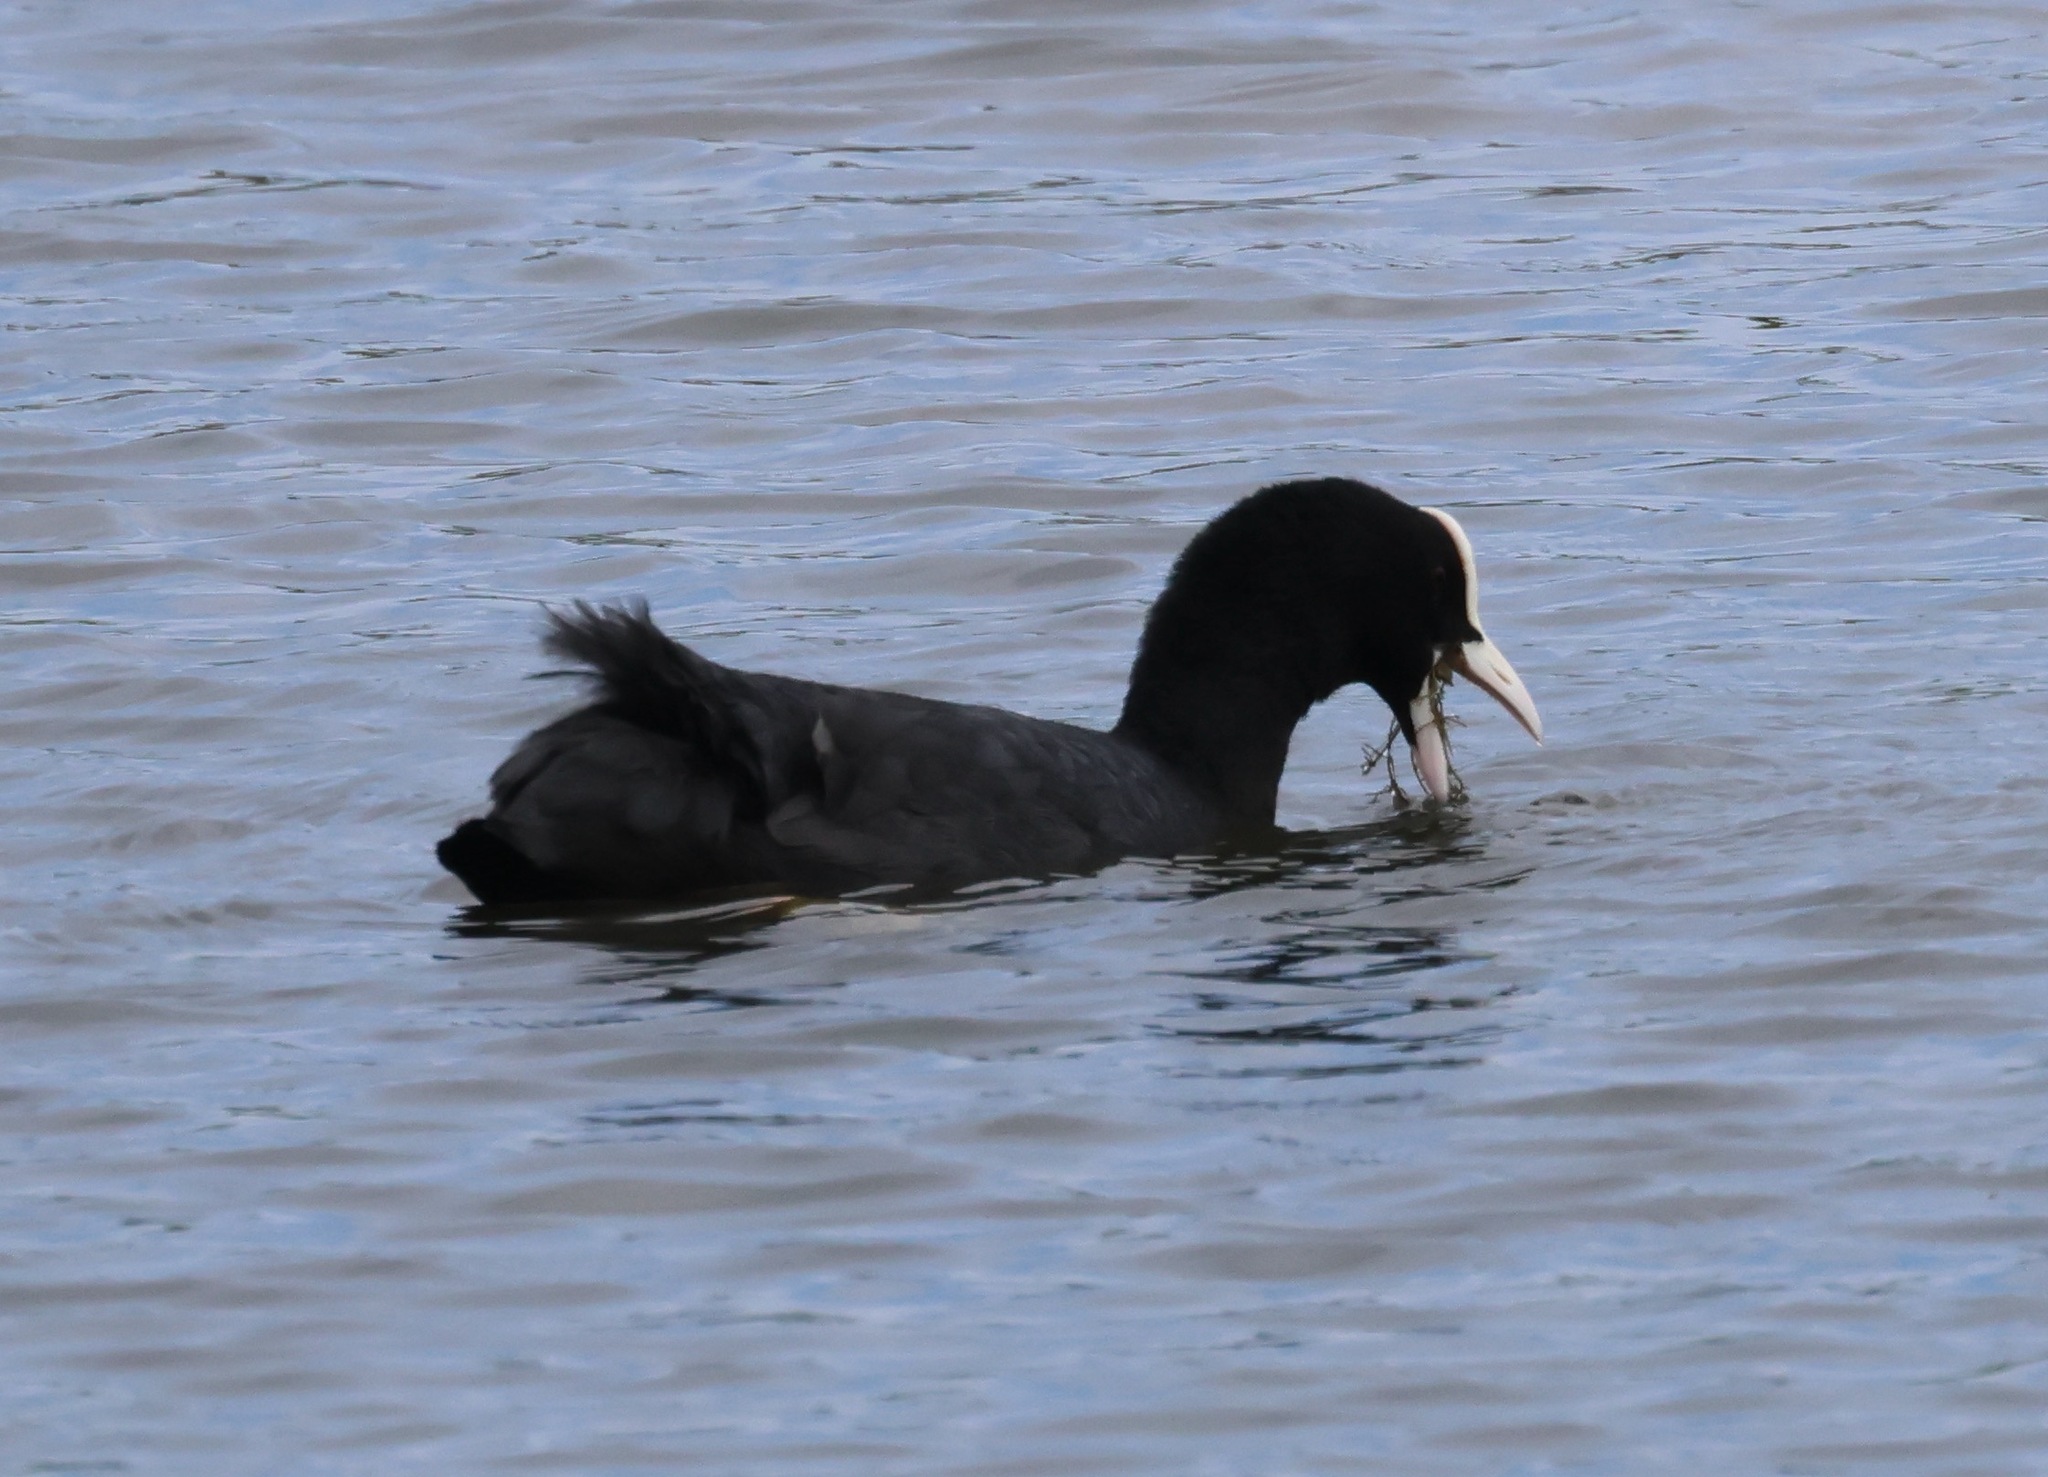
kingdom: Animalia
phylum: Chordata
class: Aves
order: Gruiformes
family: Rallidae
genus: Fulica
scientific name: Fulica atra
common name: Eurasian coot
